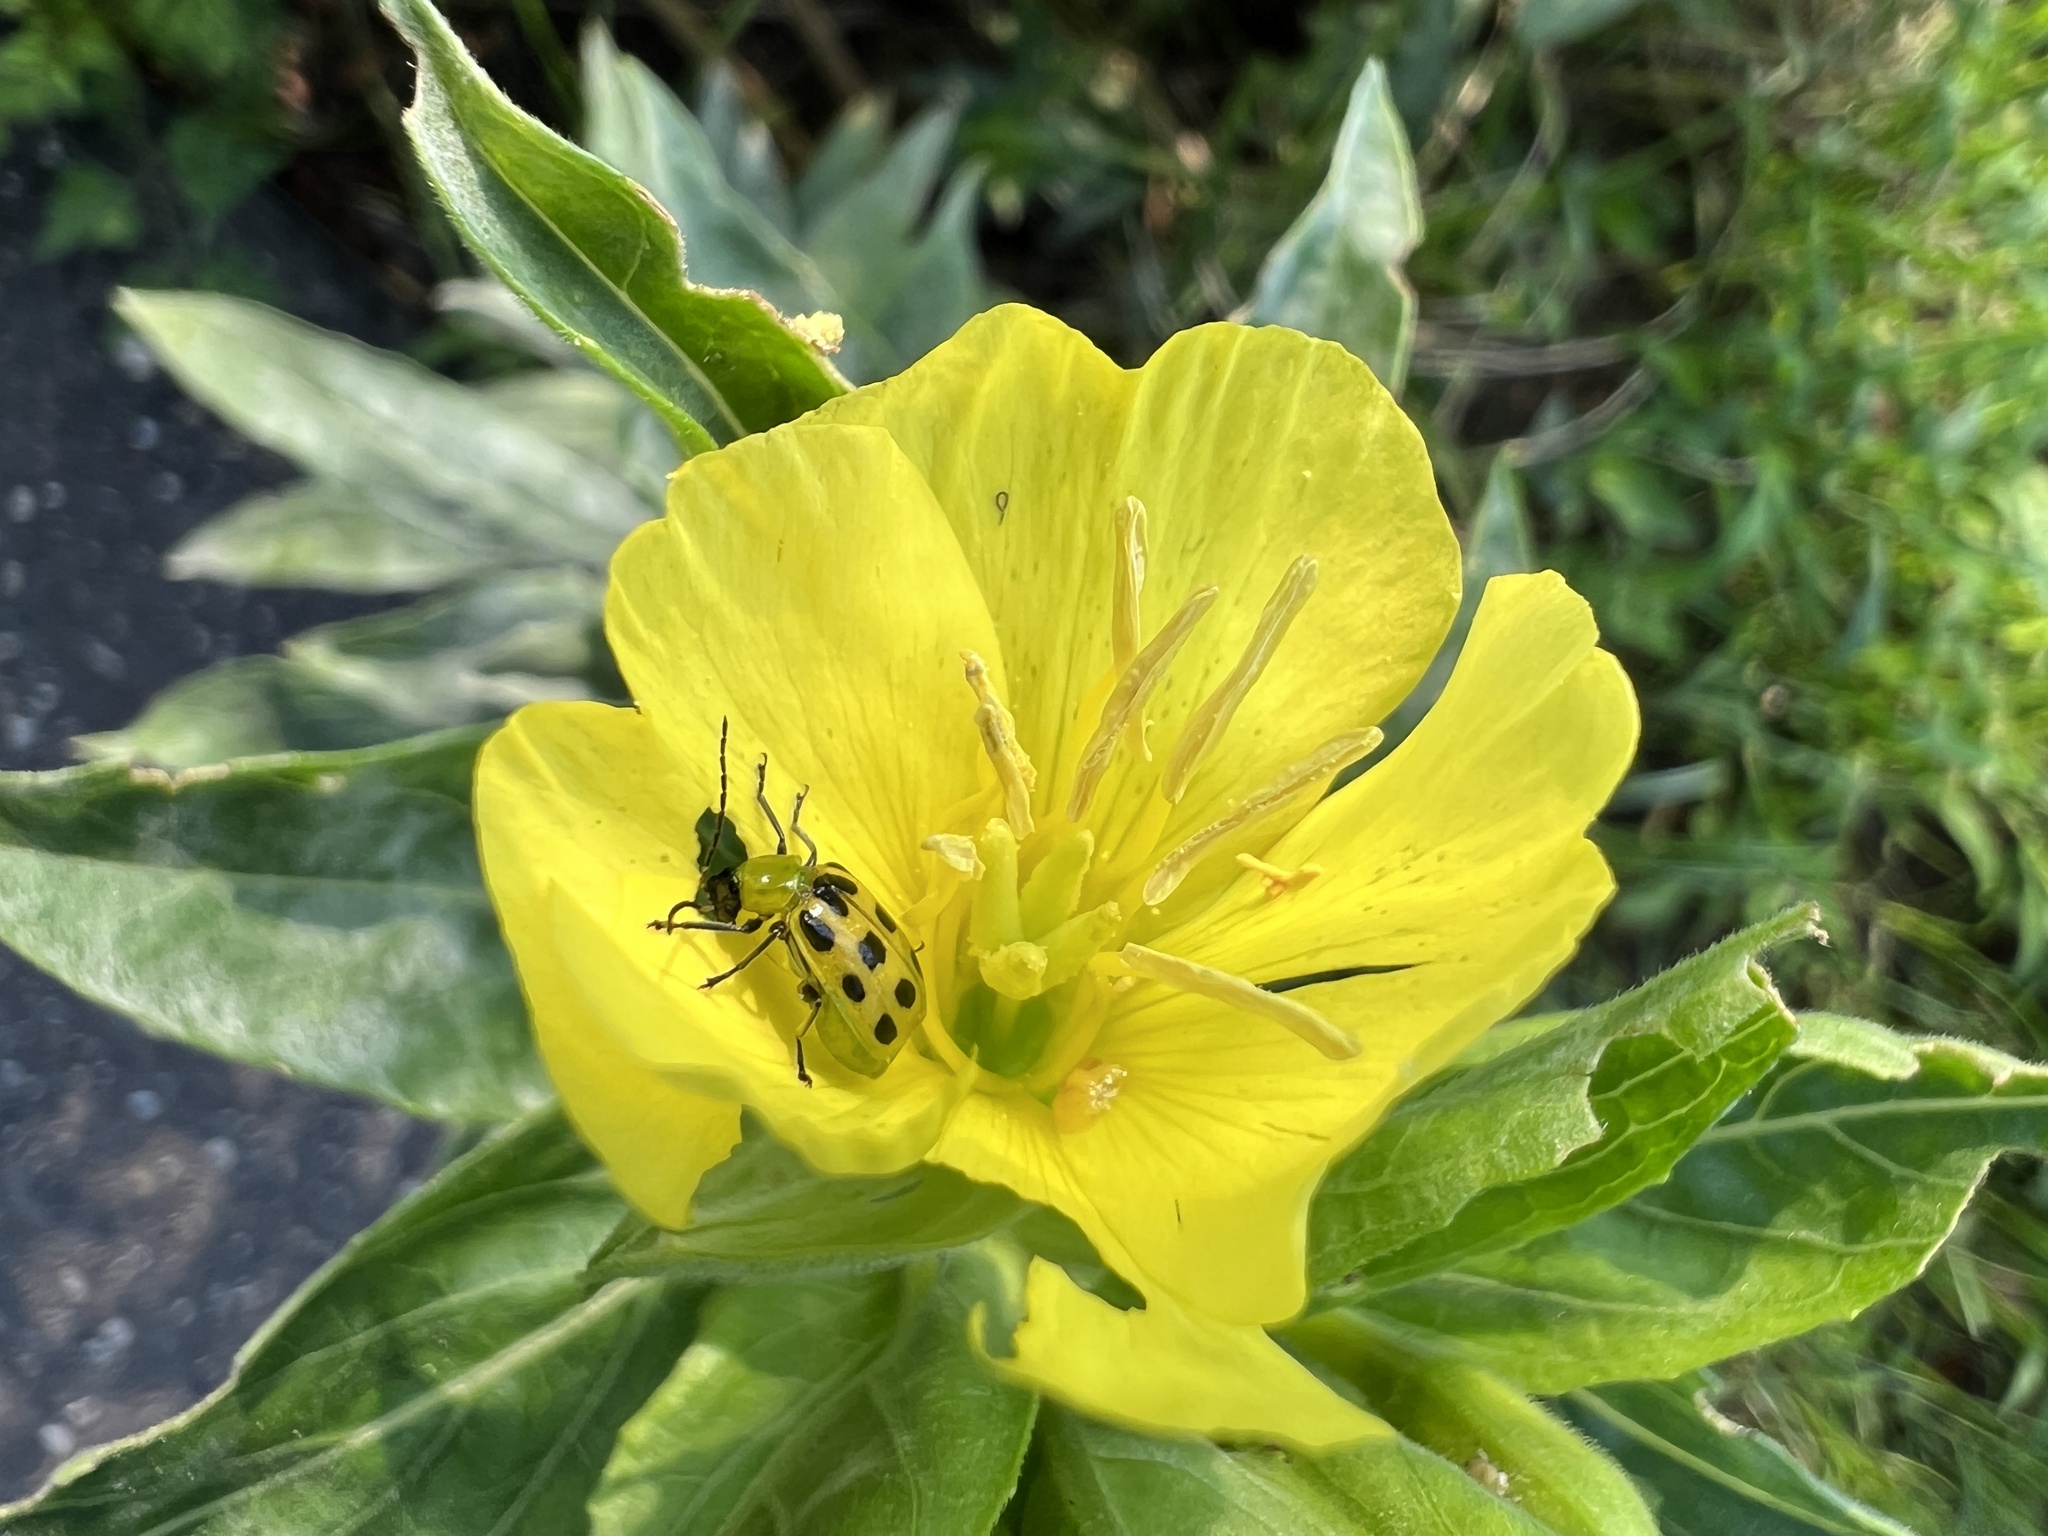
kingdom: Animalia
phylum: Arthropoda
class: Insecta
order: Coleoptera
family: Chrysomelidae
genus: Diabrotica
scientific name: Diabrotica undecimpunctata
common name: Spotted cucumber beetle
